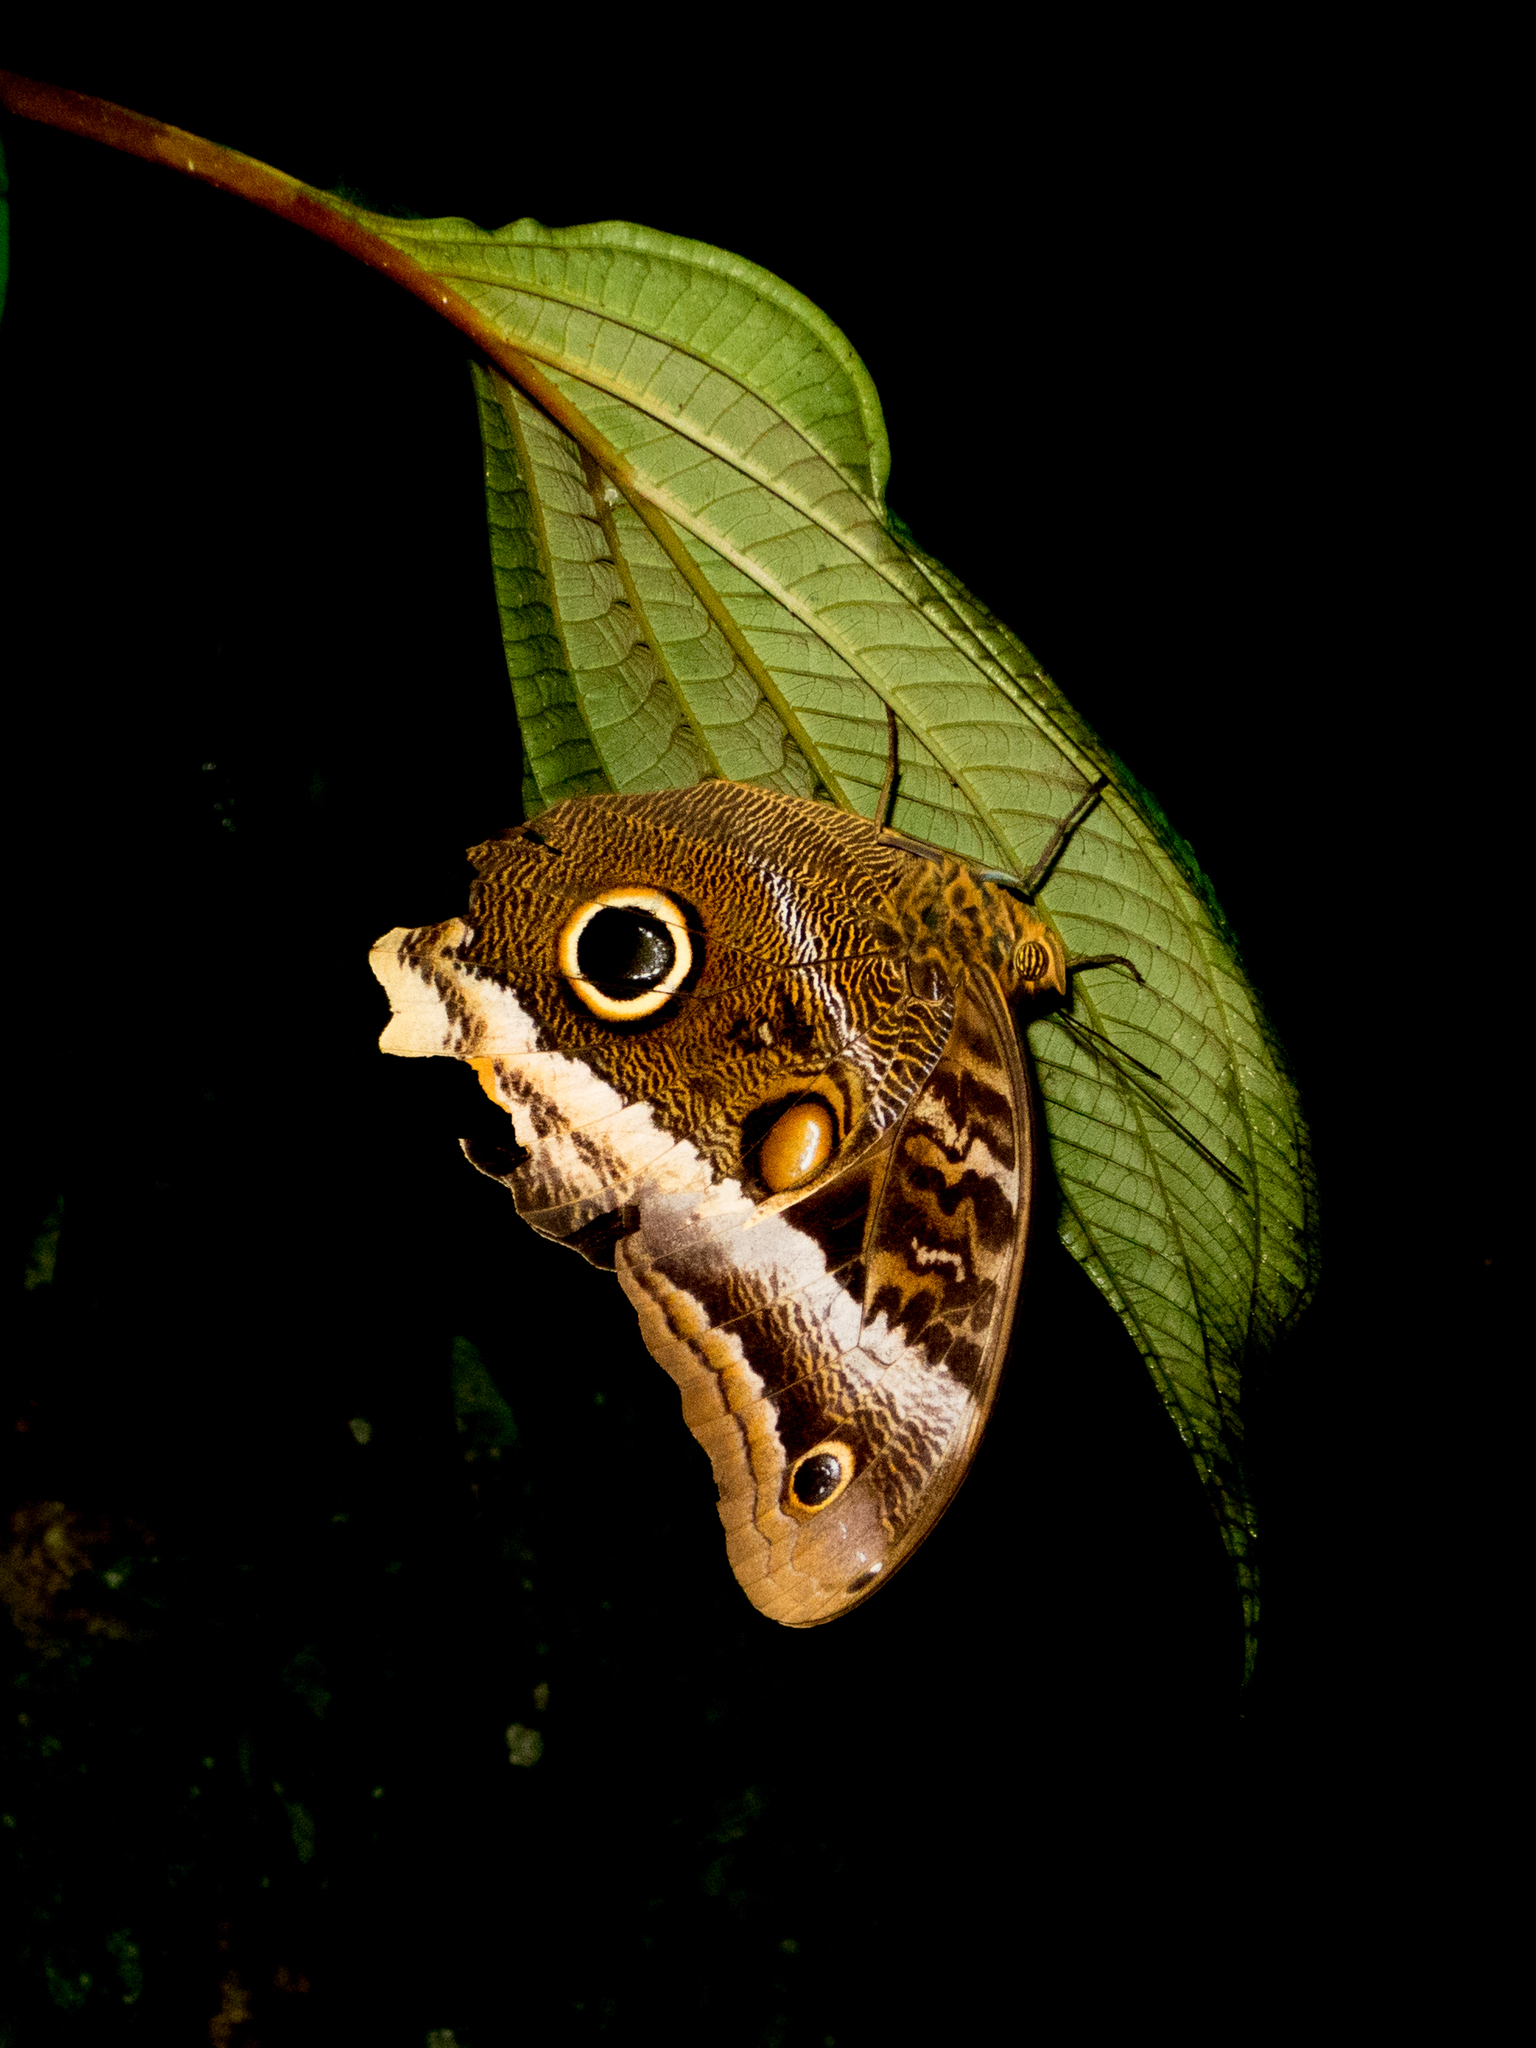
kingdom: Animalia
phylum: Arthropoda
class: Insecta
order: Lepidoptera
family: Nymphalidae
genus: Caligo
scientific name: Caligo atreus
